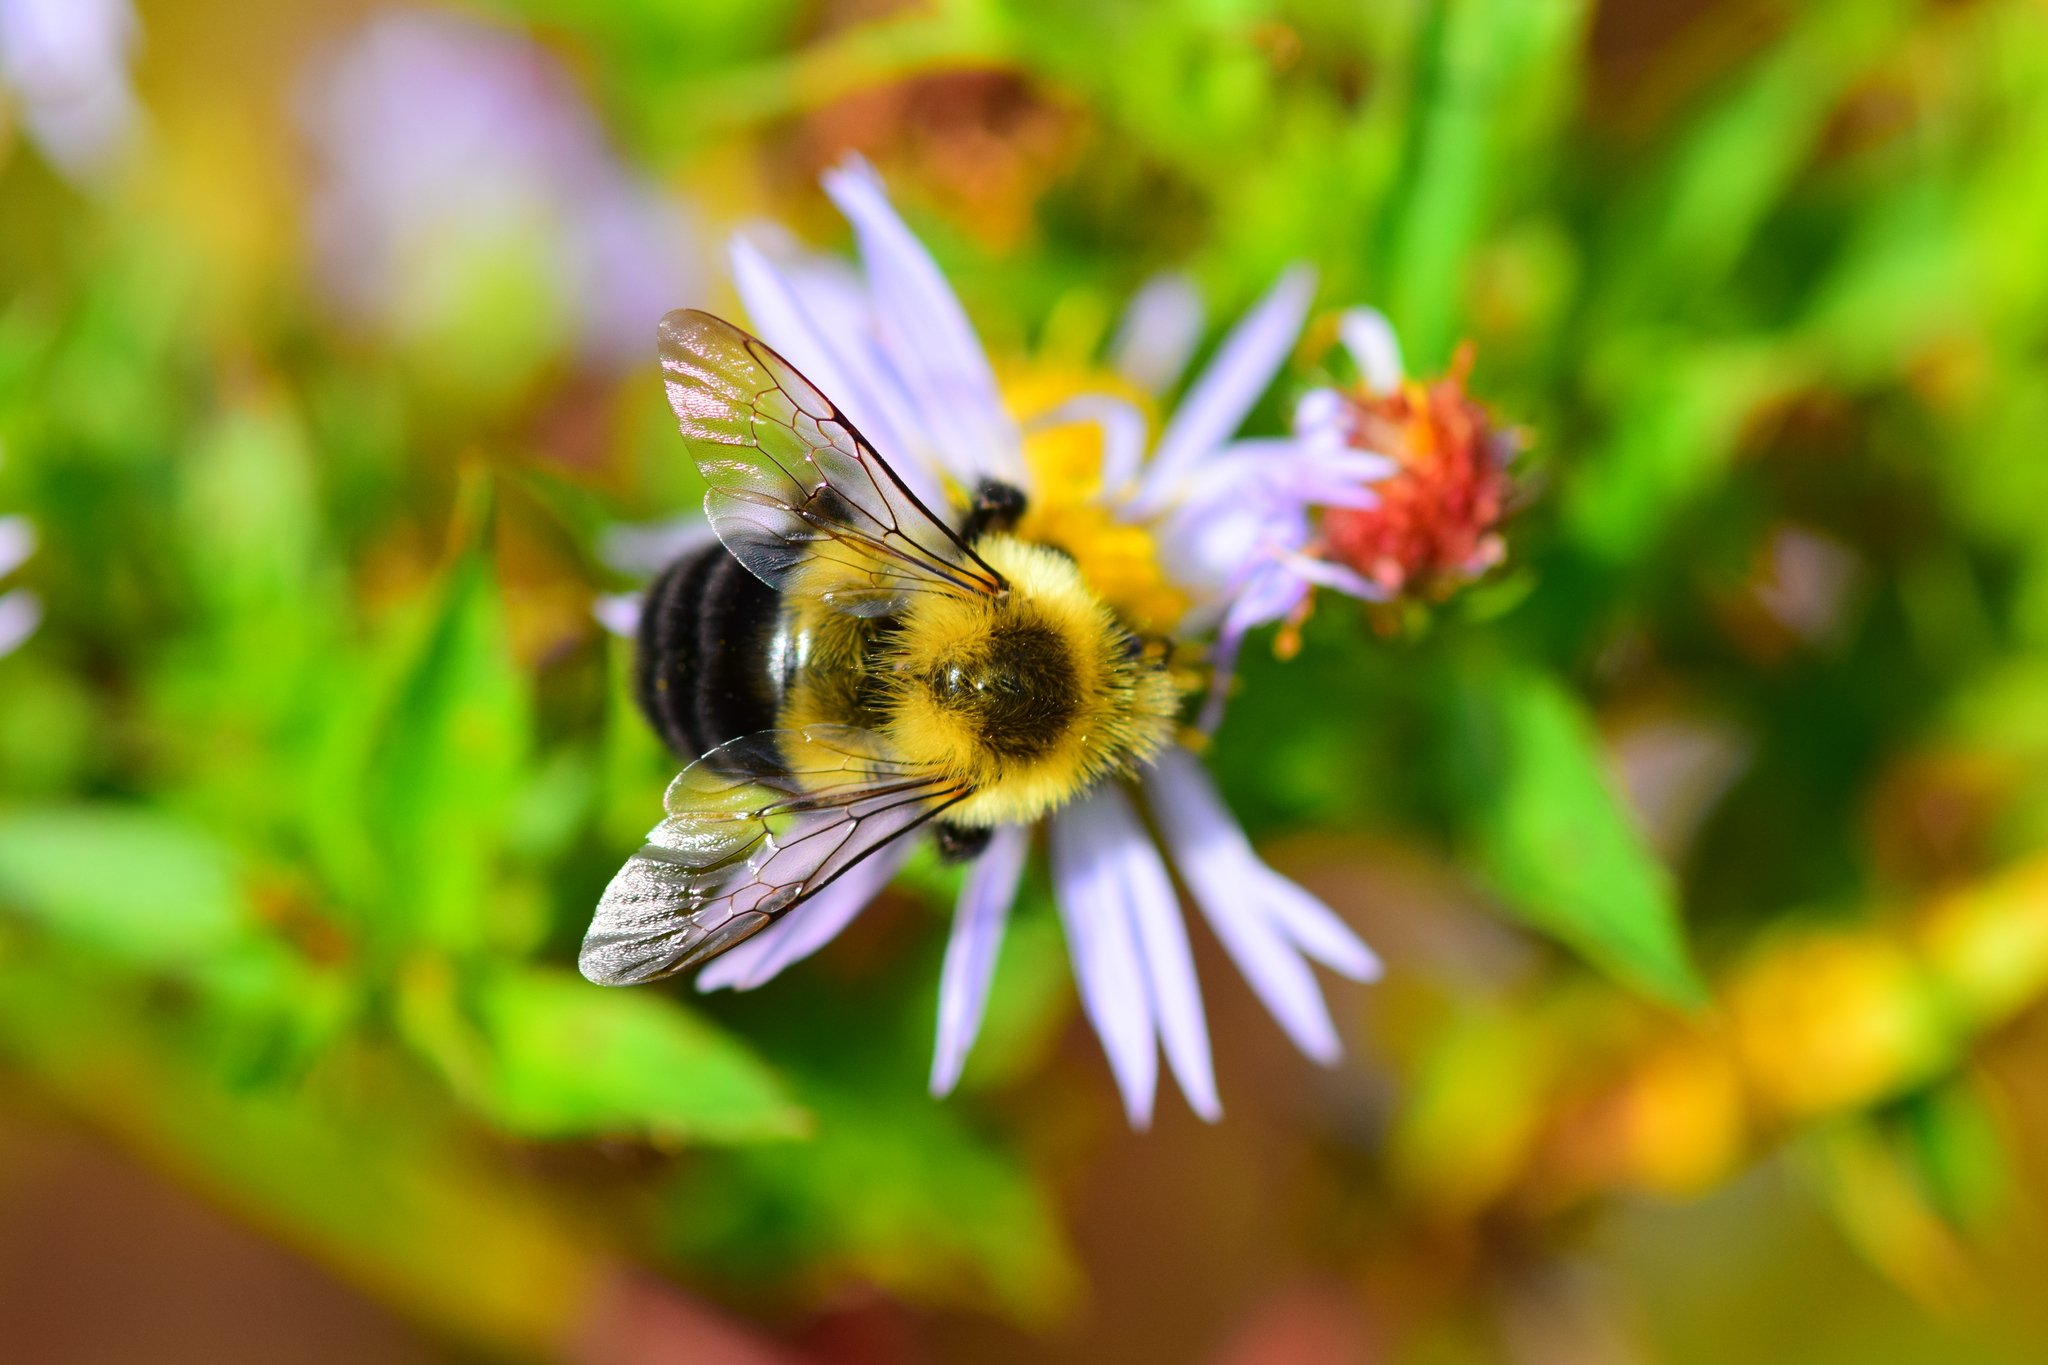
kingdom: Animalia
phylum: Arthropoda
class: Insecta
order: Hymenoptera
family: Apidae
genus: Bombus
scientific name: Bombus impatiens
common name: Common eastern bumble bee
